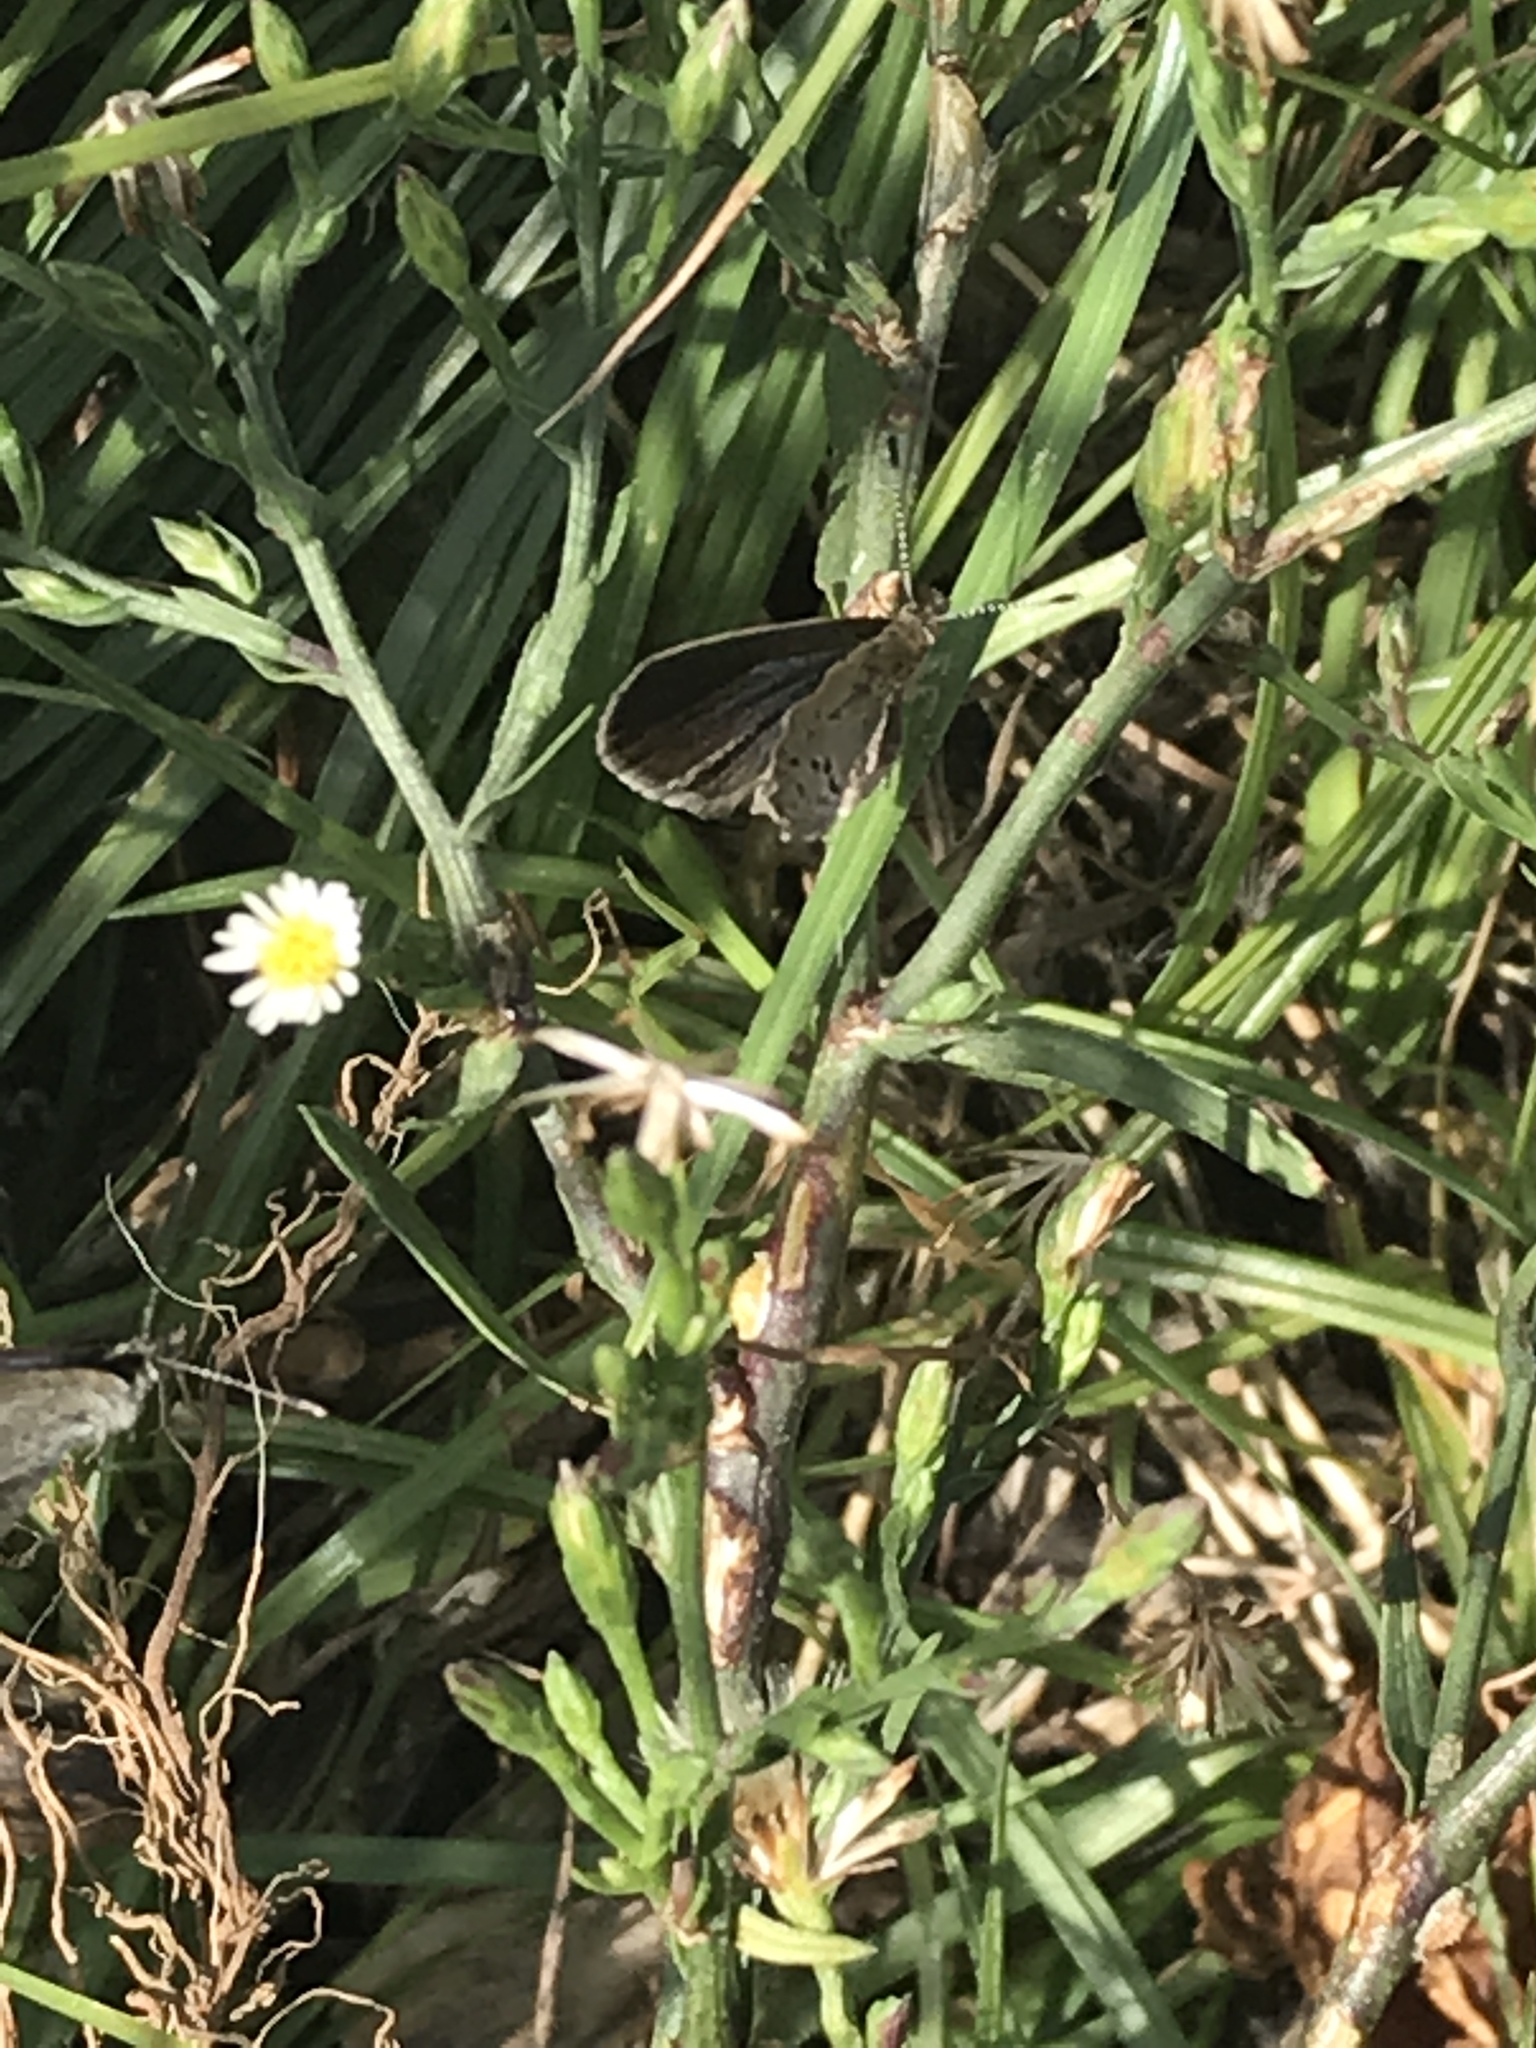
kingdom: Animalia
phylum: Arthropoda
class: Insecta
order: Lepidoptera
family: Lycaenidae
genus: Zizeeria
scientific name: Zizeeria knysna
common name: African grass blue
